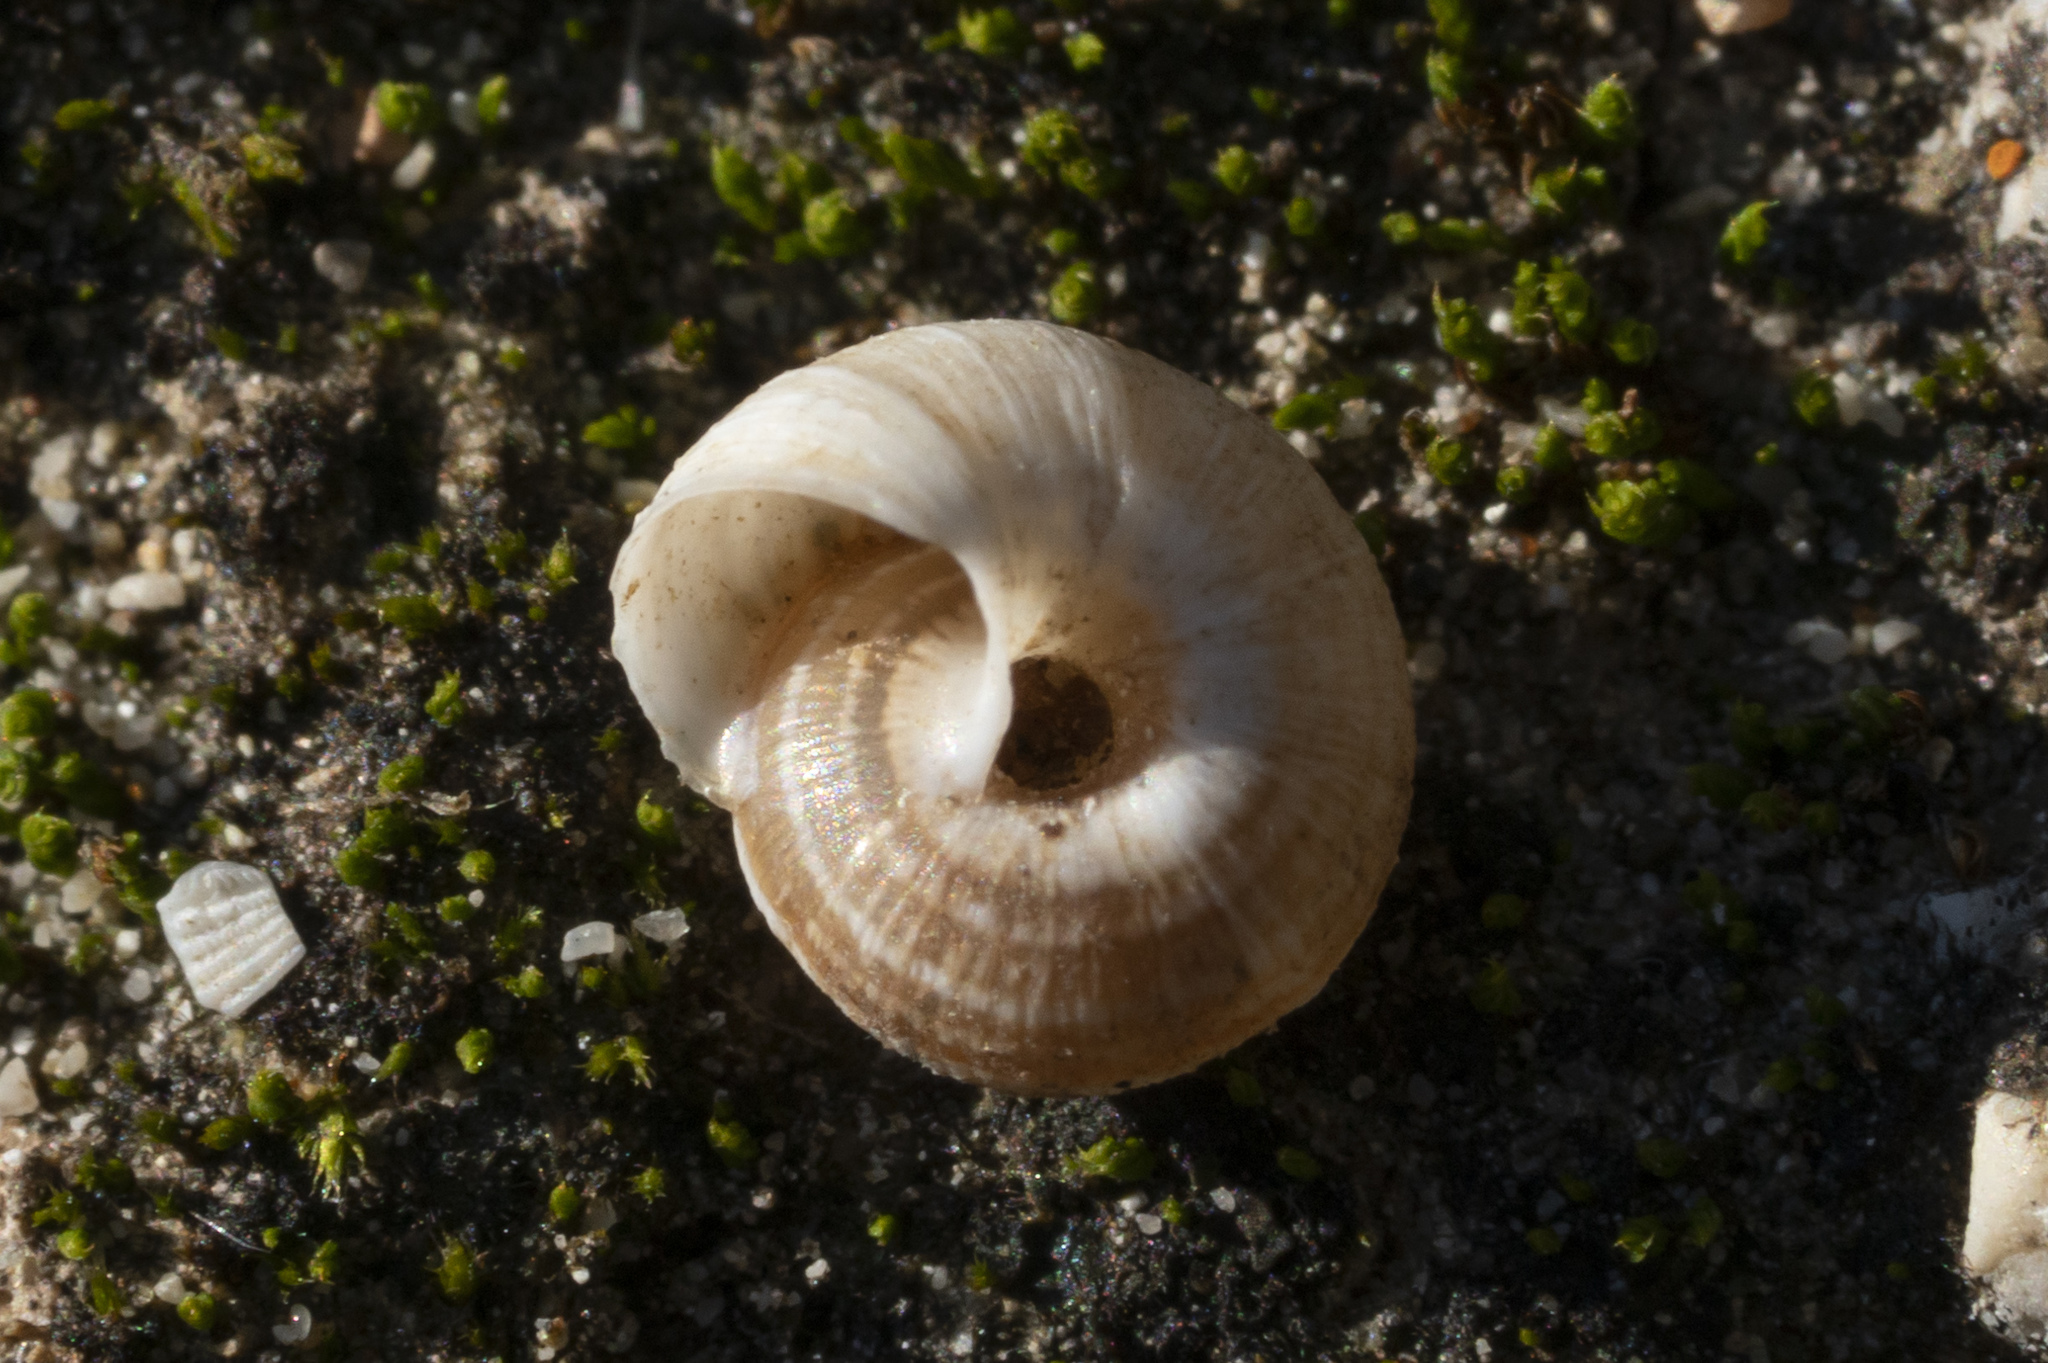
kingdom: Animalia
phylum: Mollusca
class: Gastropoda
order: Stylommatophora
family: Geomitridae
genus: Xerotricha
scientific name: Xerotricha apicina
